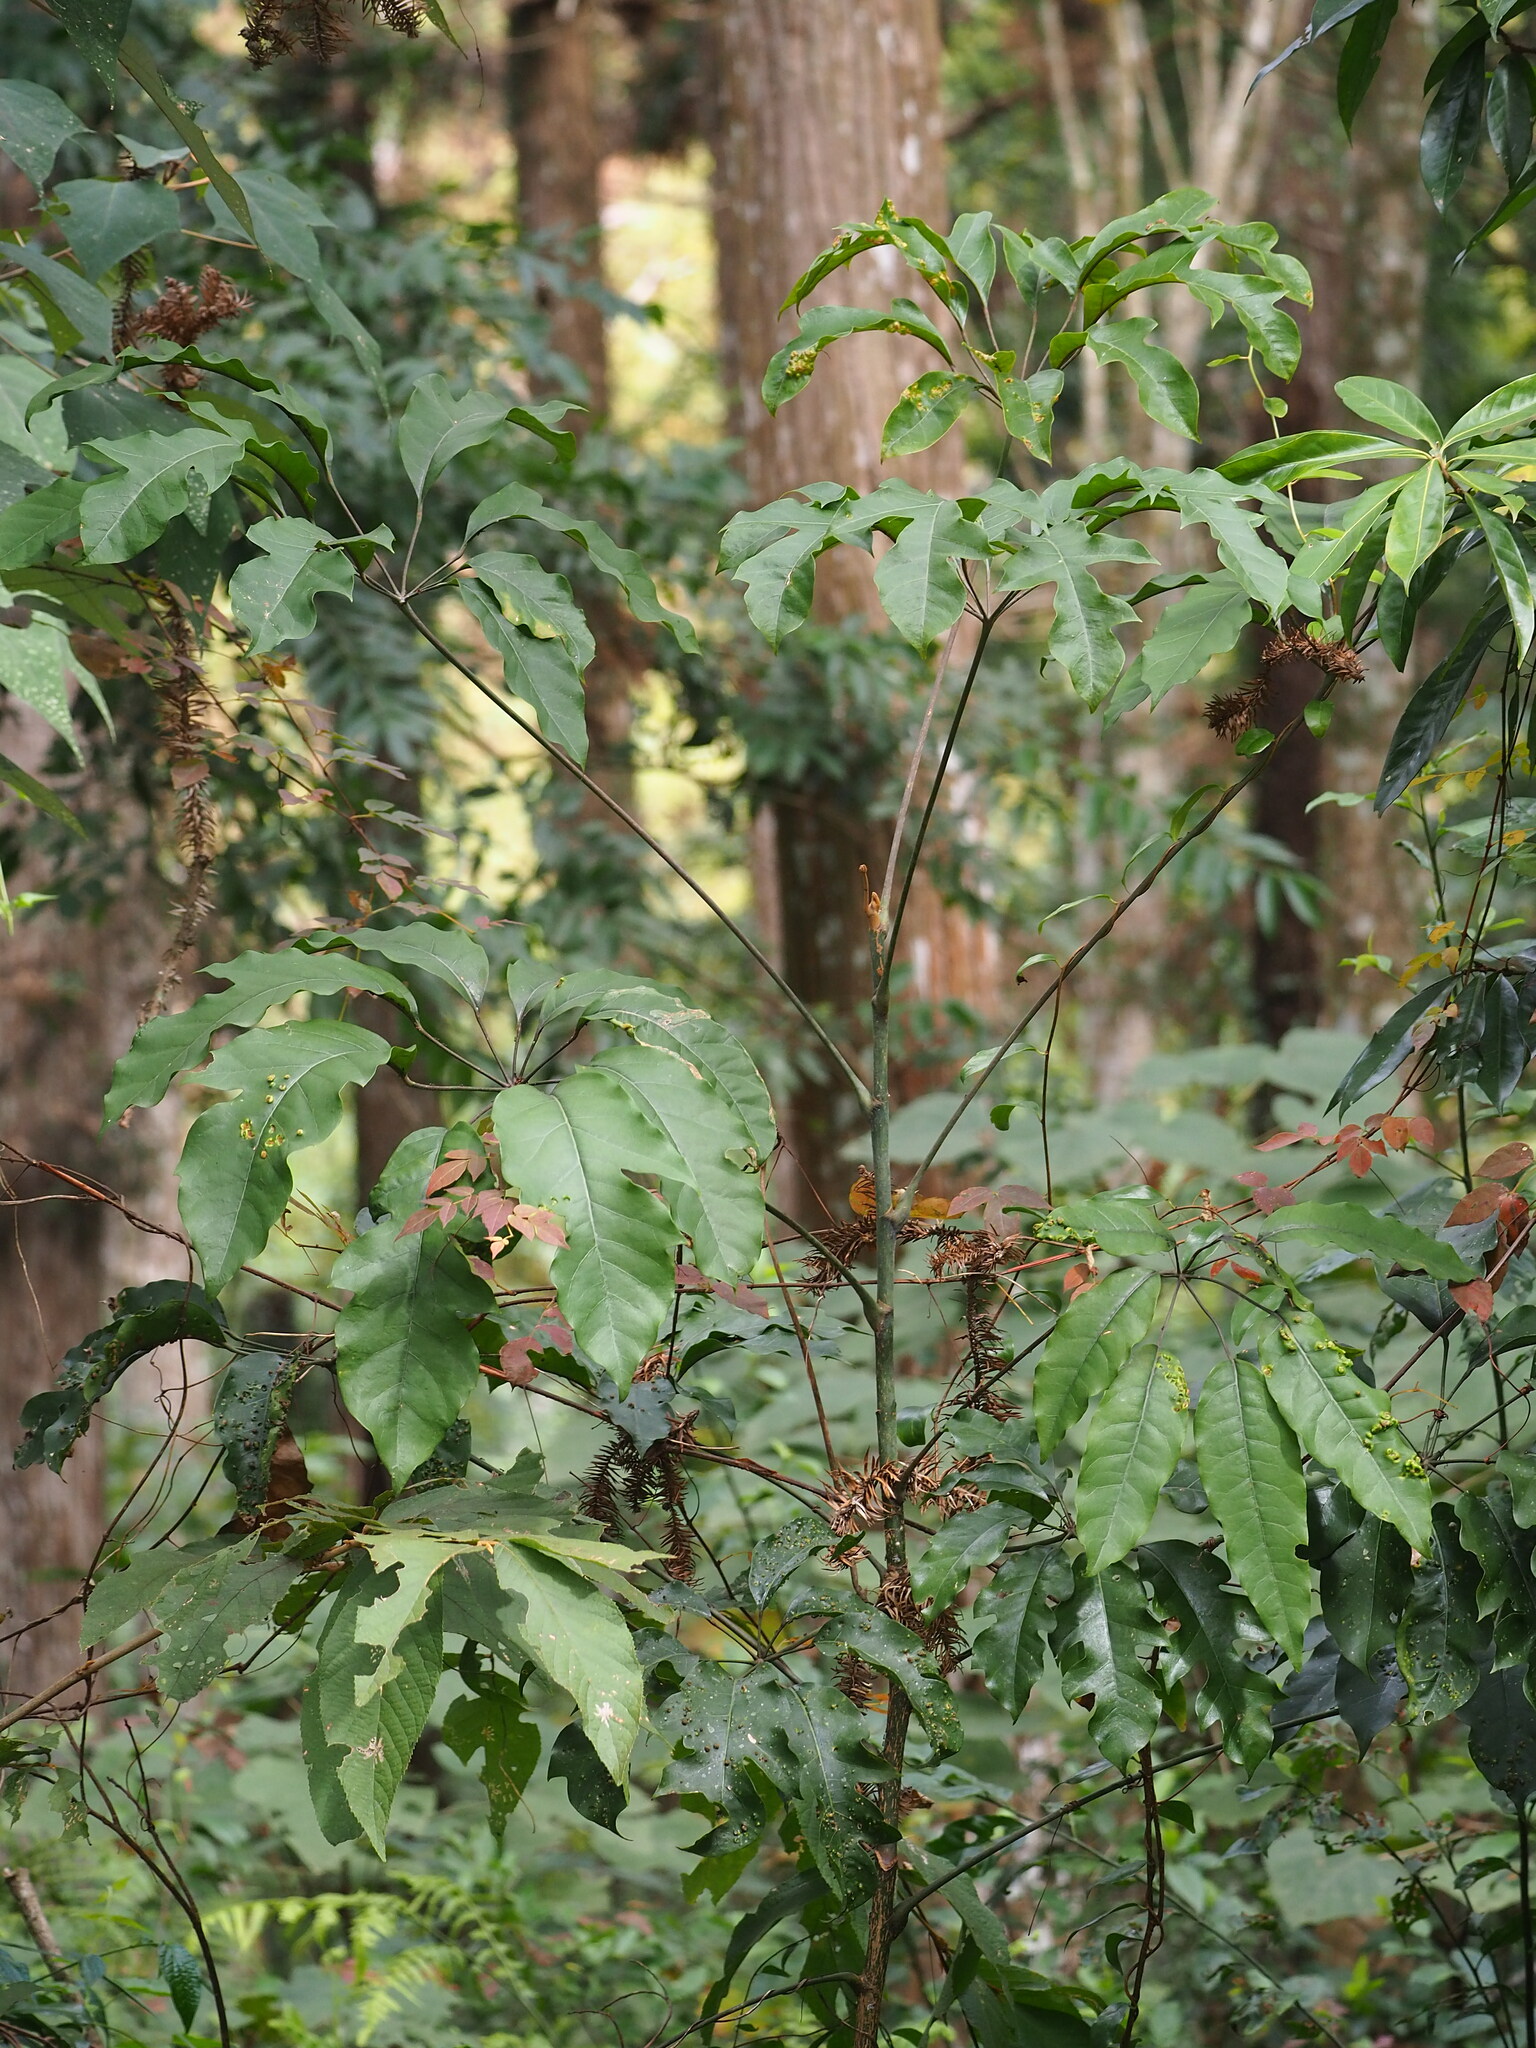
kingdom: Plantae
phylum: Tracheophyta
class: Magnoliopsida
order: Apiales
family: Araliaceae
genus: Heptapleurum
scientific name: Heptapleurum heptaphyllum
